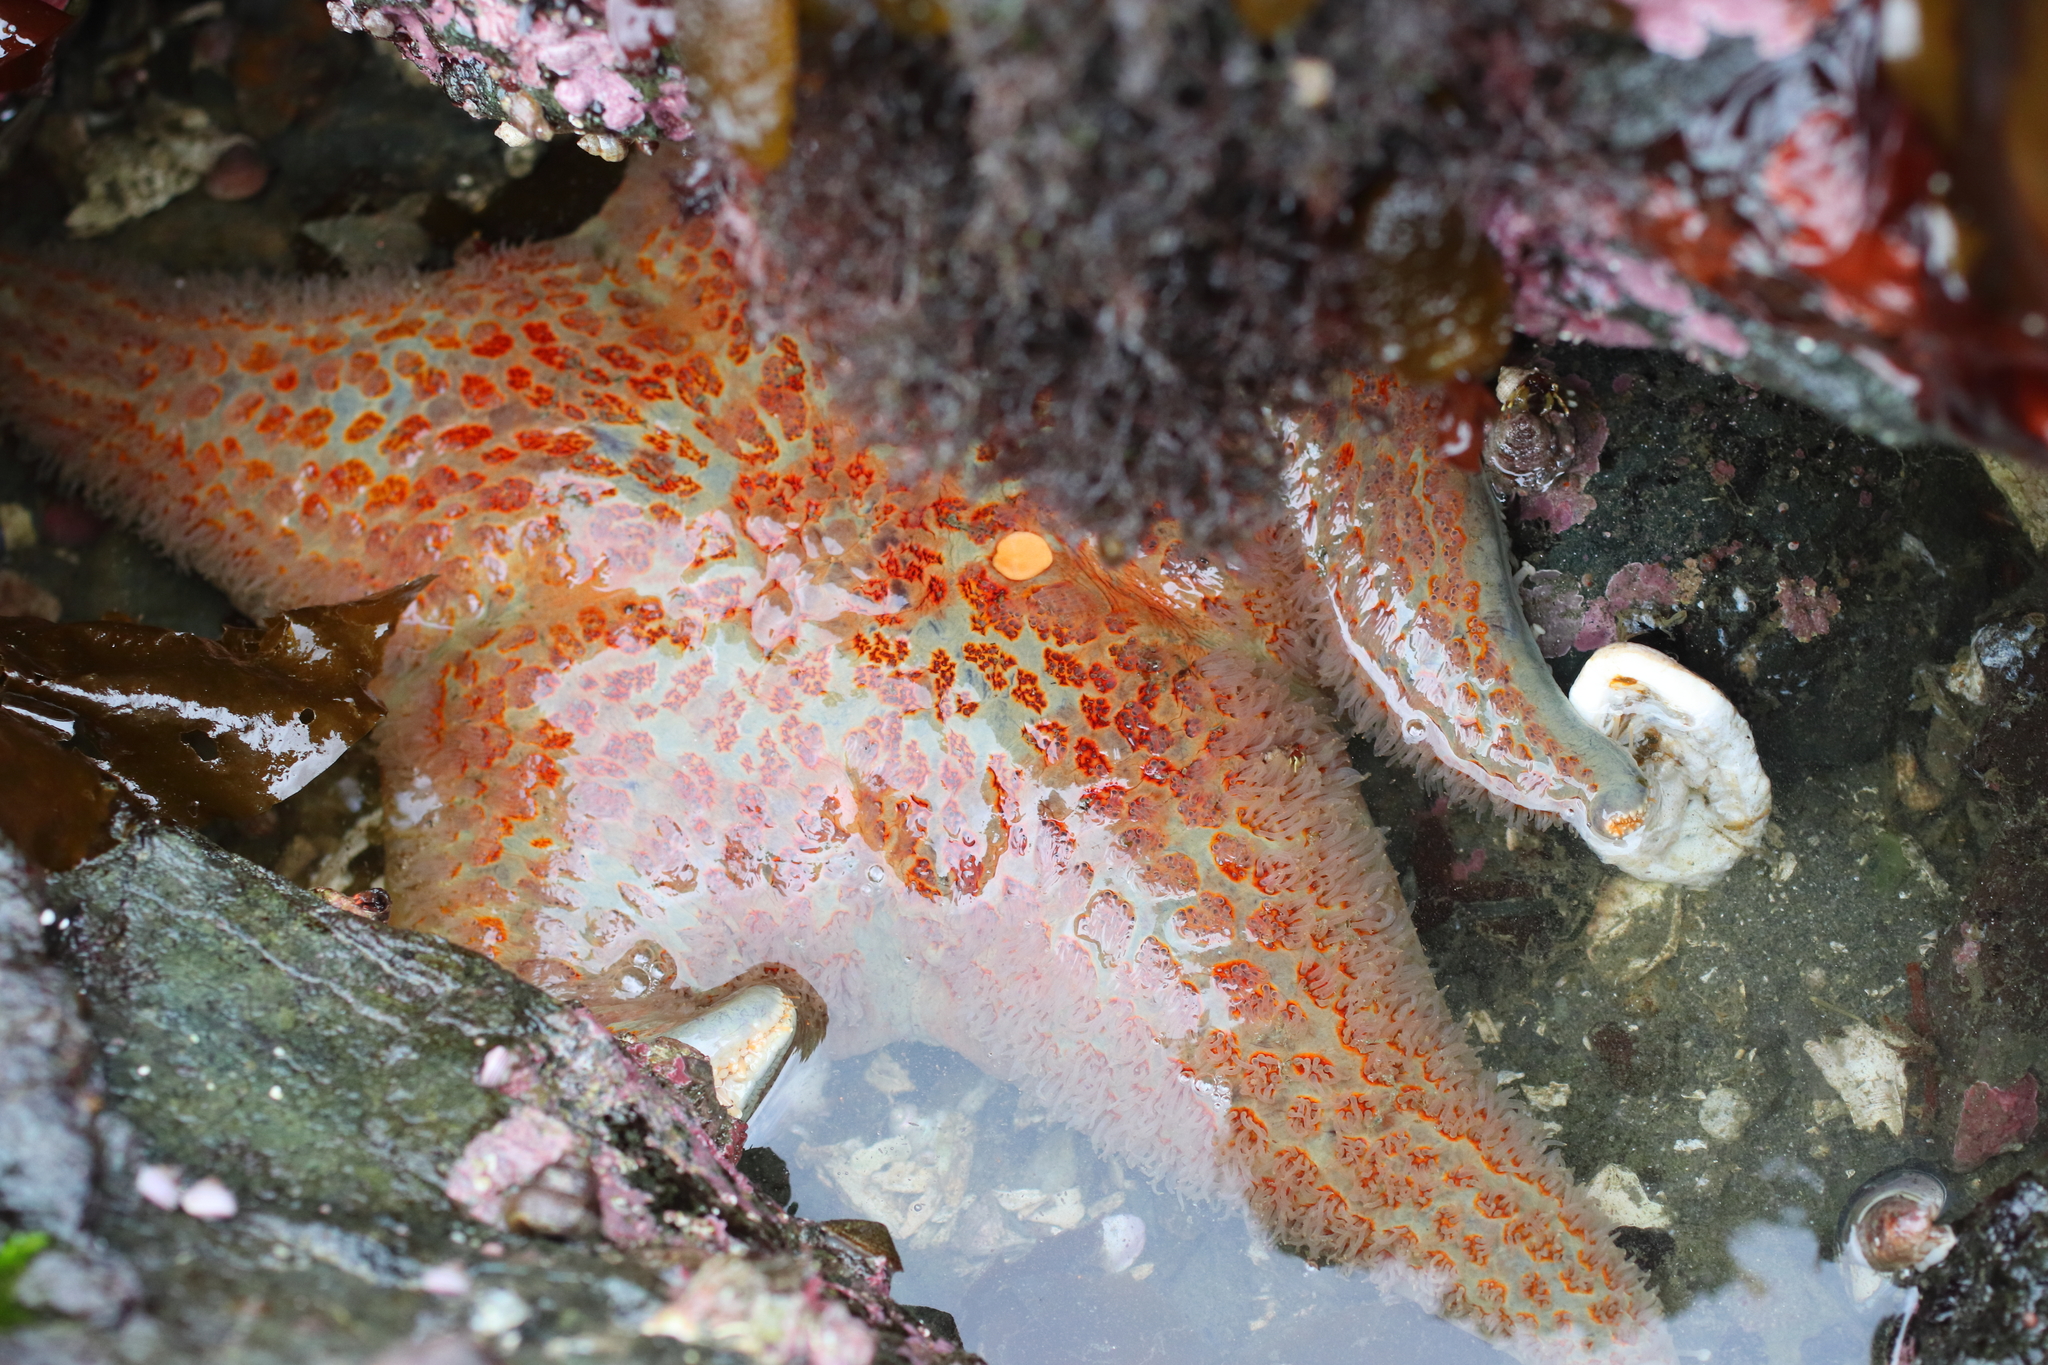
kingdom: Animalia
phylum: Echinodermata
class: Asteroidea
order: Valvatida
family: Asteropseidae
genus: Dermasterias
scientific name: Dermasterias imbricata
